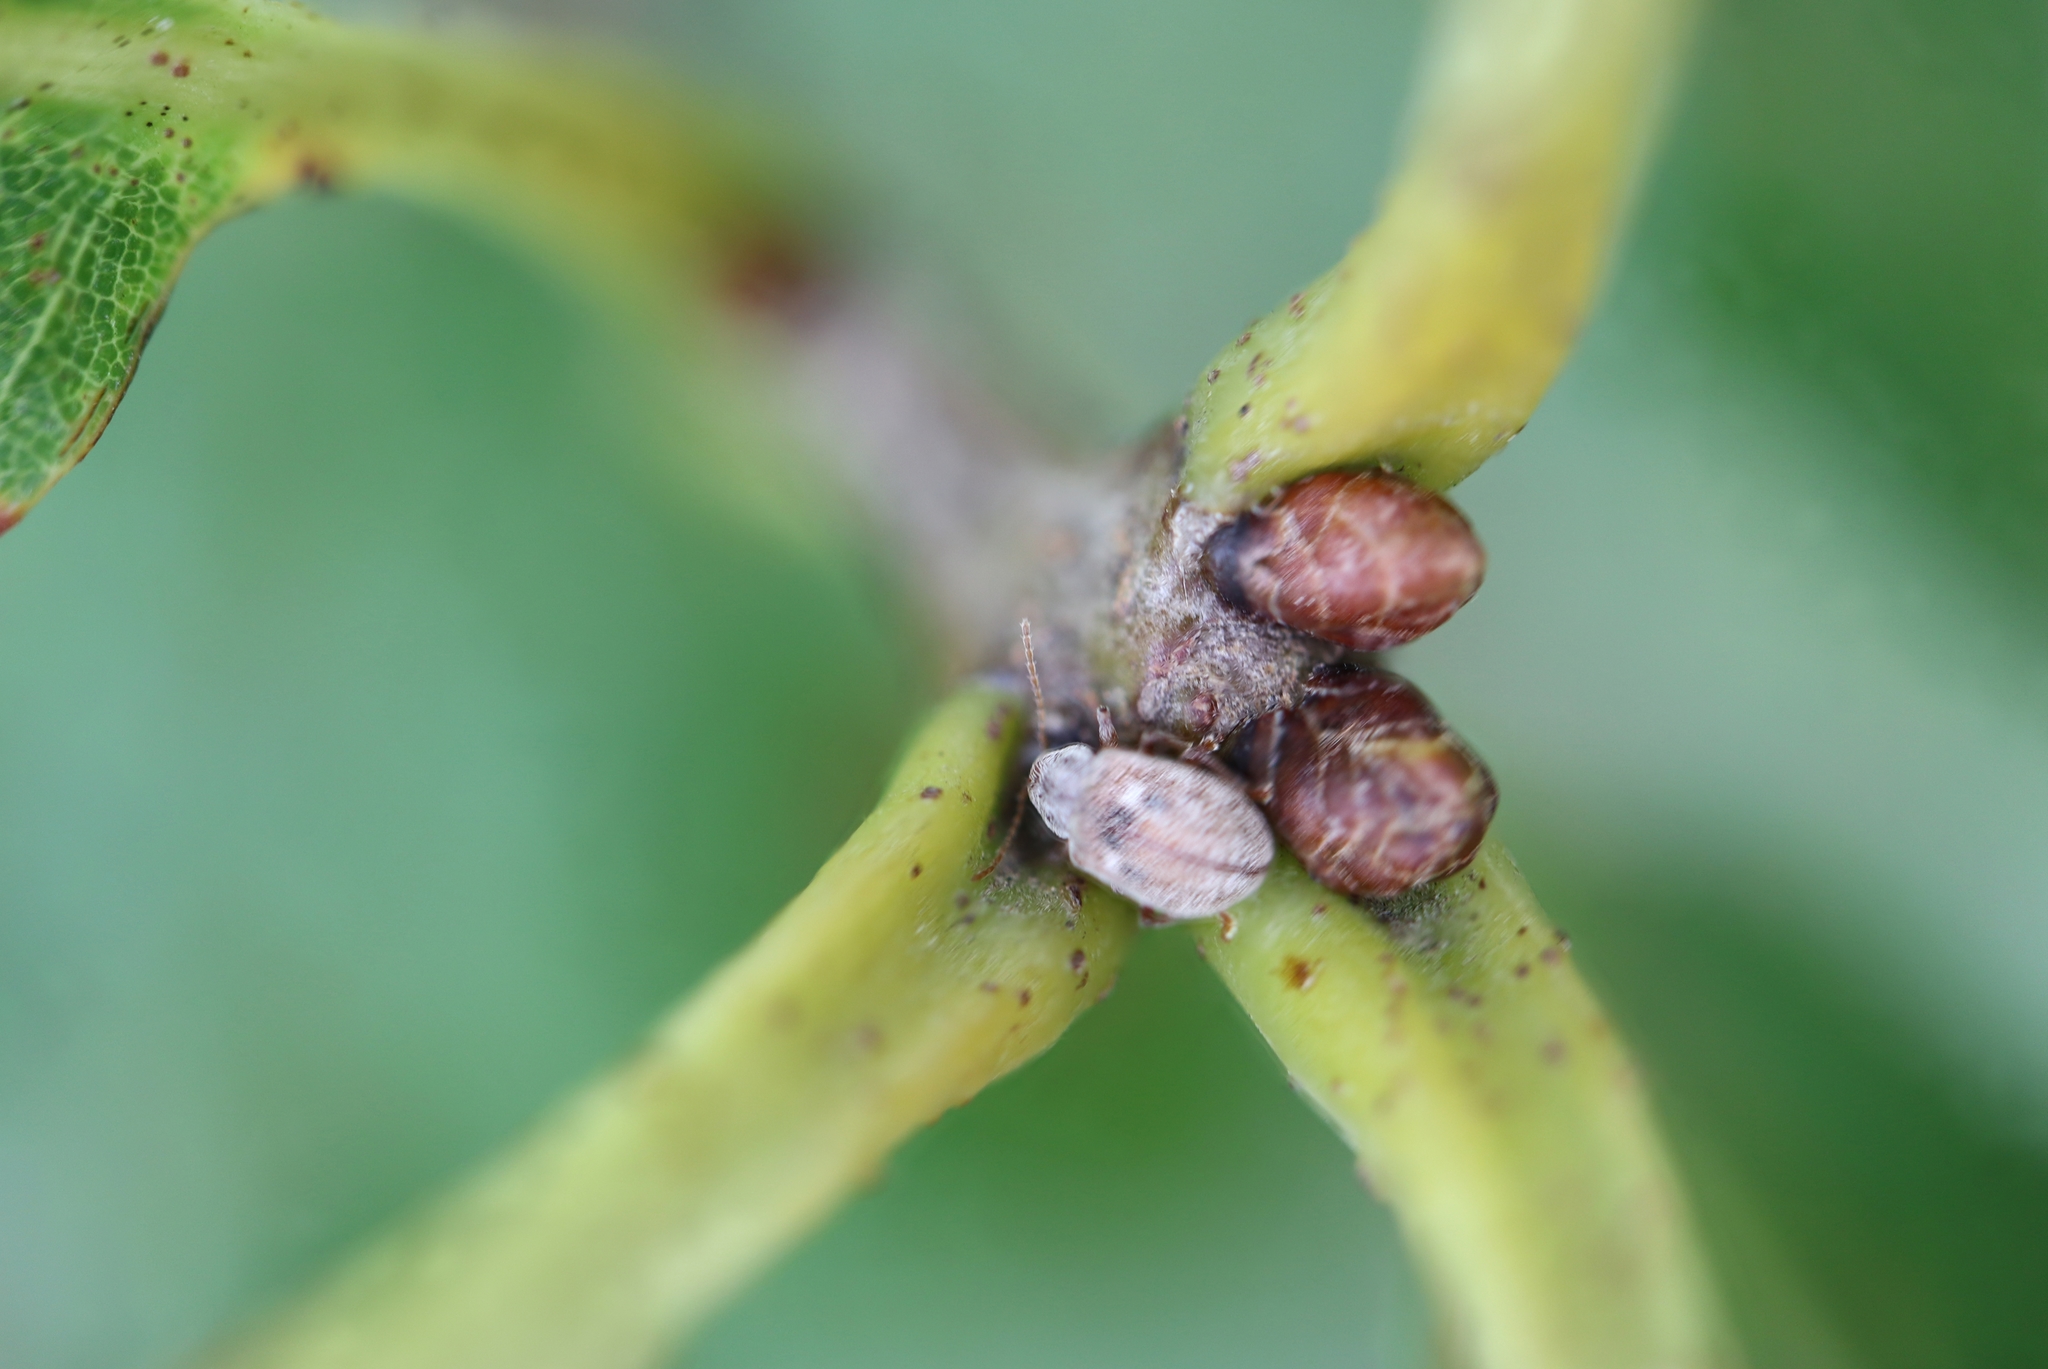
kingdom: Animalia
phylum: Arthropoda
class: Insecta
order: Coleoptera
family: Chrysomelidae
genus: Demotina
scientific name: Demotina modesta
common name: Leaf beetle
